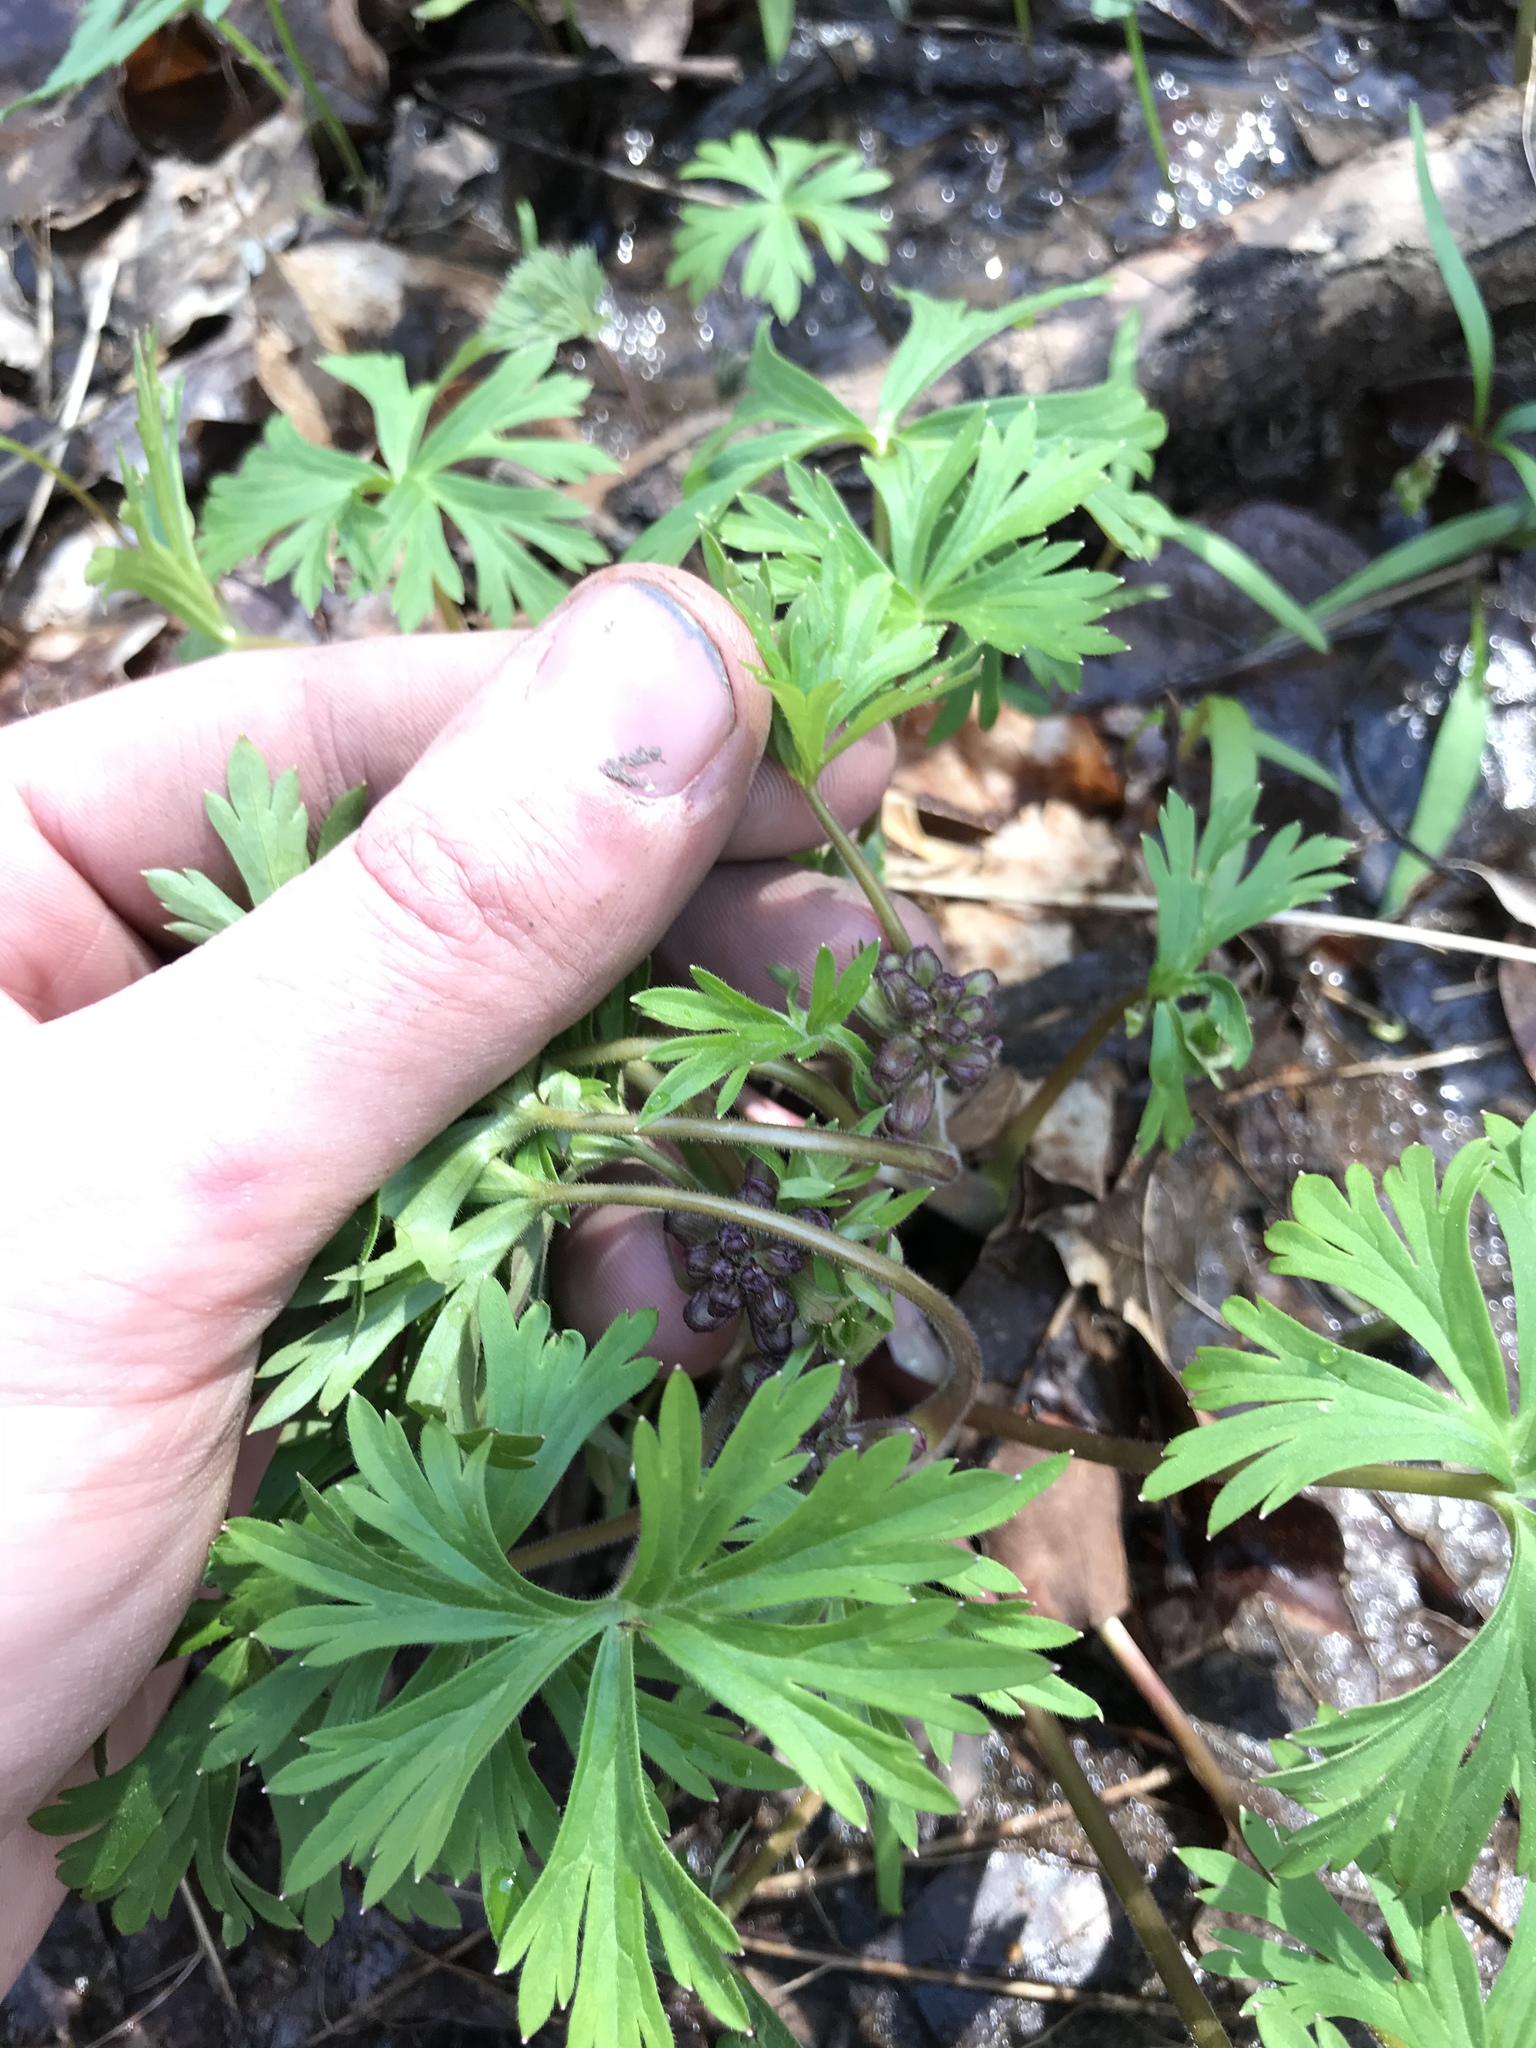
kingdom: Plantae
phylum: Tracheophyta
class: Magnoliopsida
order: Ranunculales
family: Ranunculaceae
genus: Delphinium
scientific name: Delphinium tricorne
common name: Dwarf larkspur
